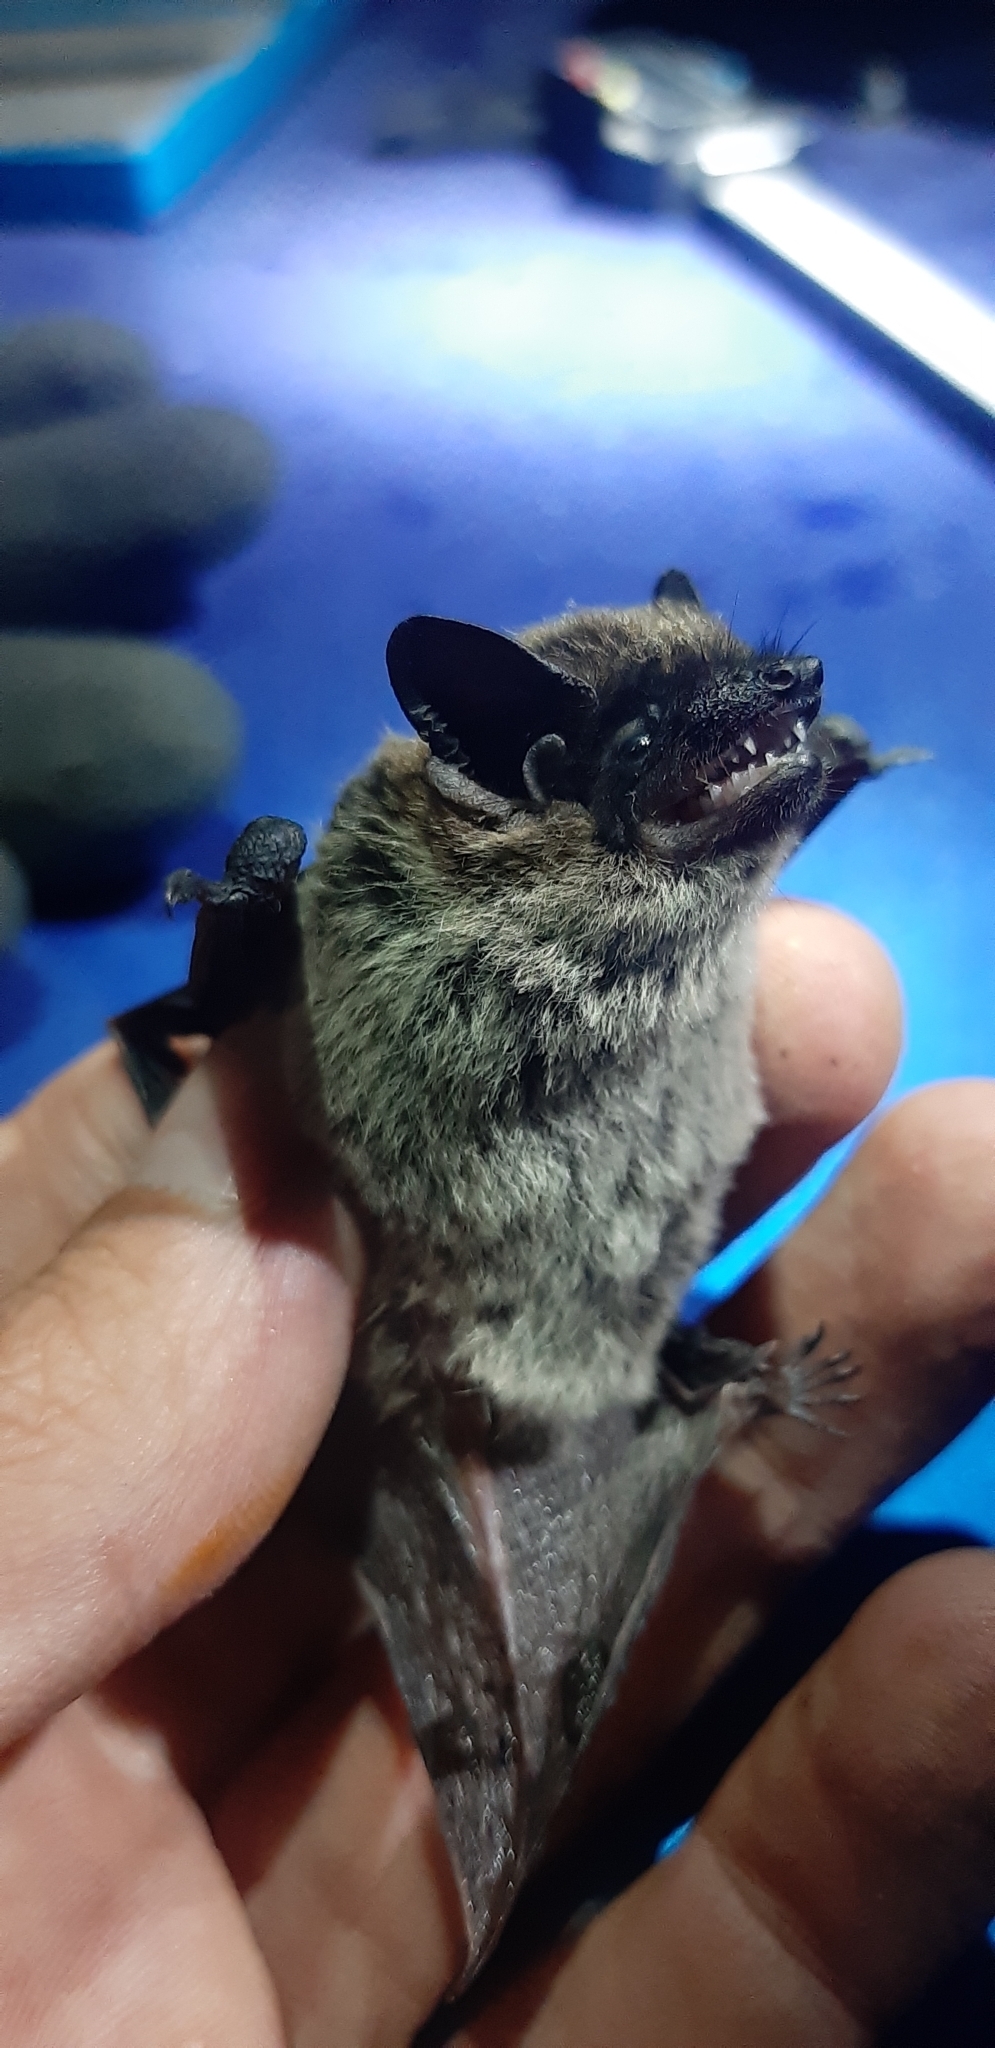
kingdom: Animalia
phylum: Chordata
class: Mammalia
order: Chiroptera
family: Vespertilionidae
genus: Hypsugo
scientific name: Hypsugo savii
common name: Savi's pipistrelle
